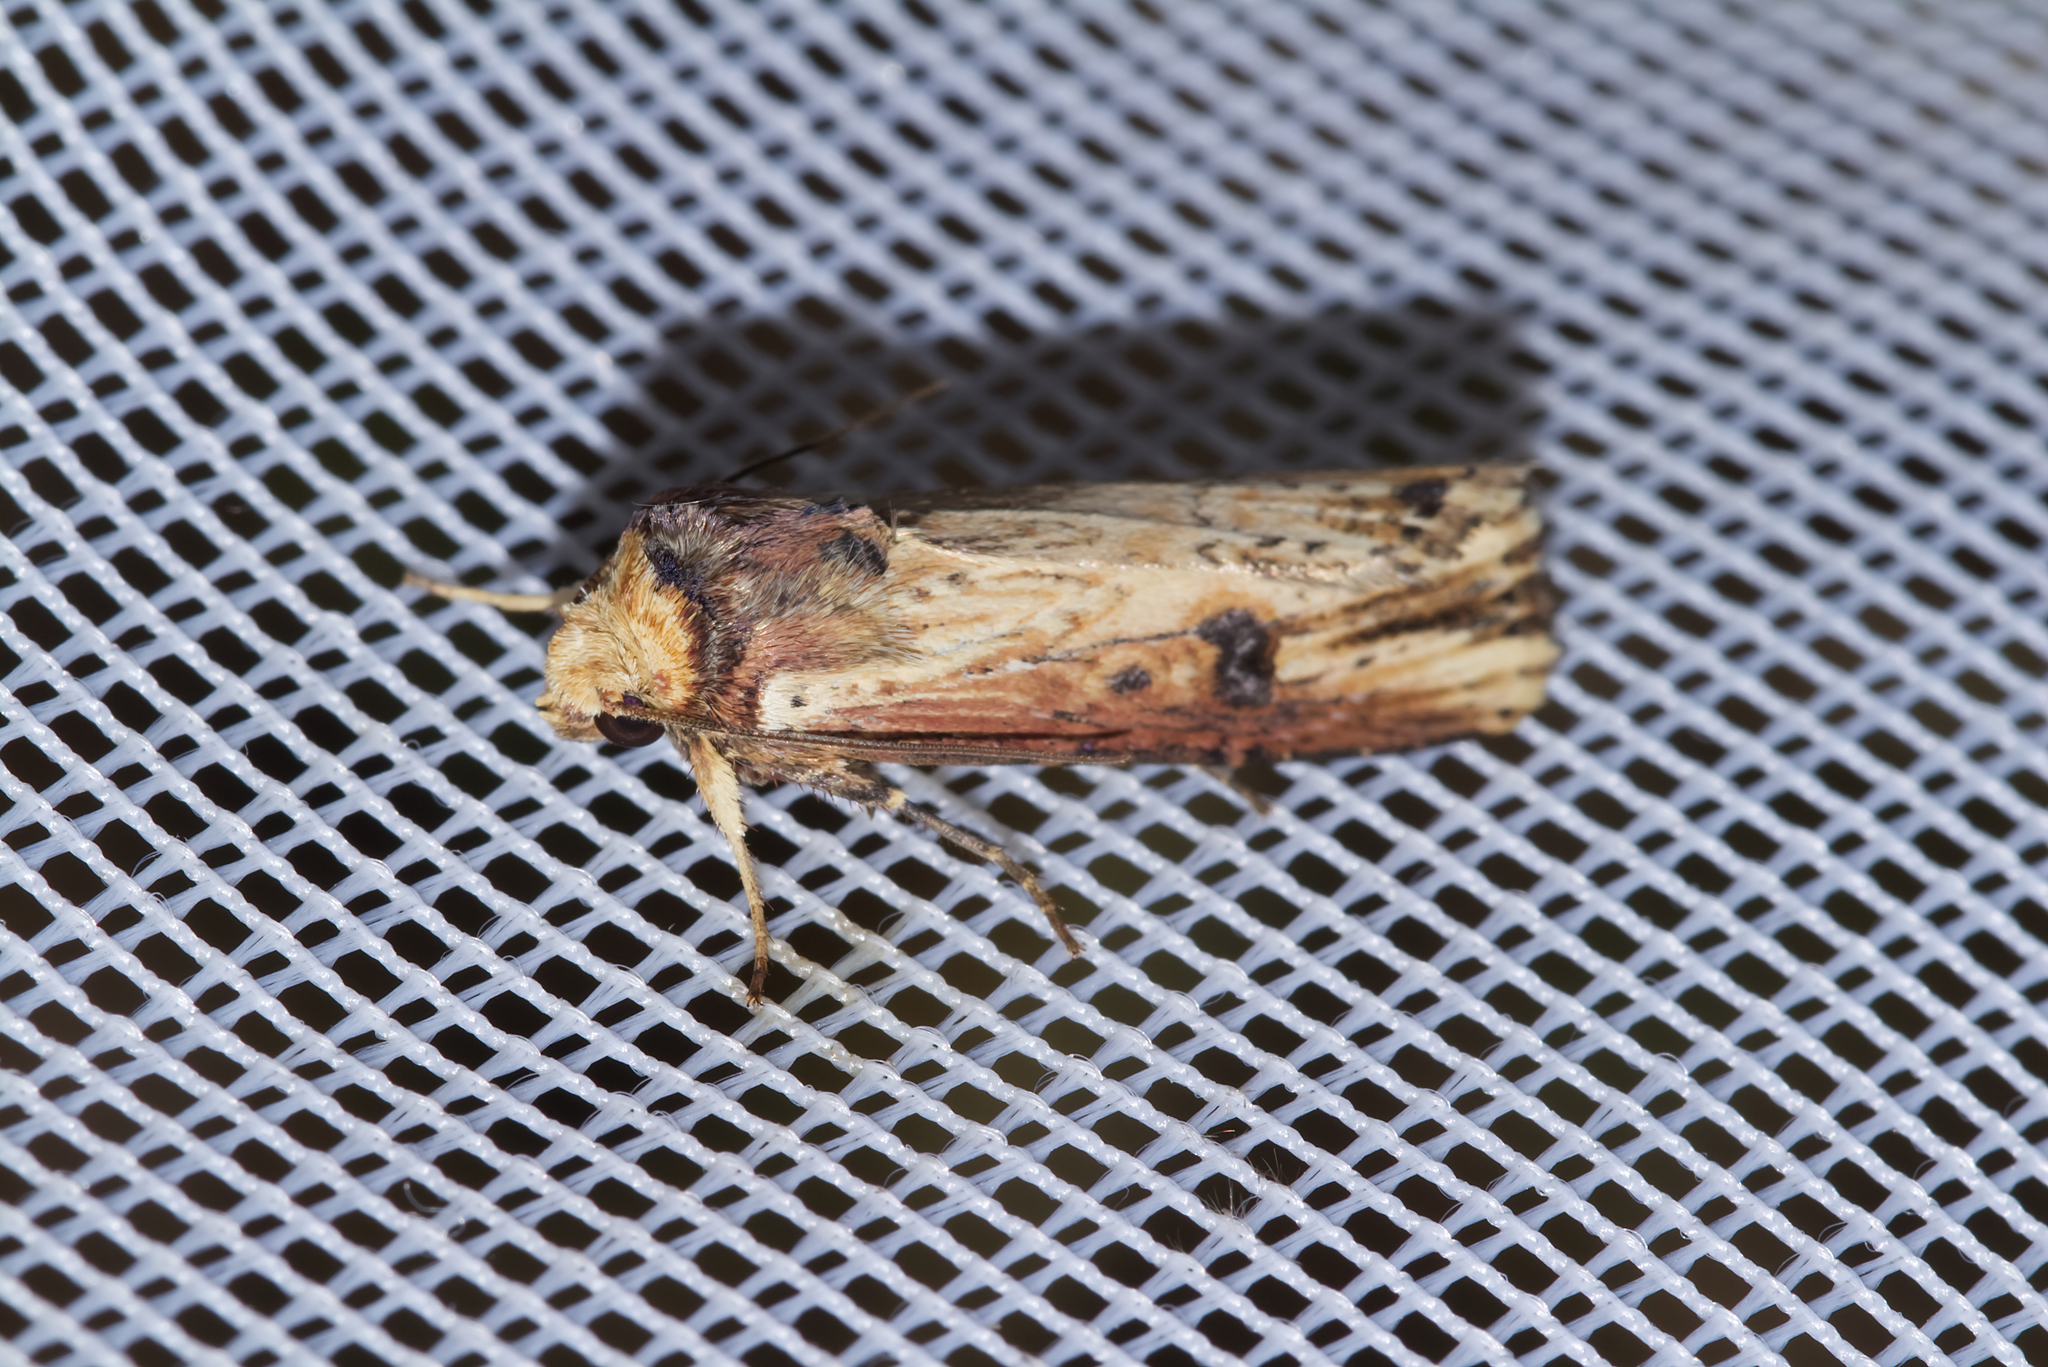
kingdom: Animalia
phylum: Arthropoda
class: Insecta
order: Lepidoptera
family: Noctuidae
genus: Axylia
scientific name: Axylia putris
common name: Flame
